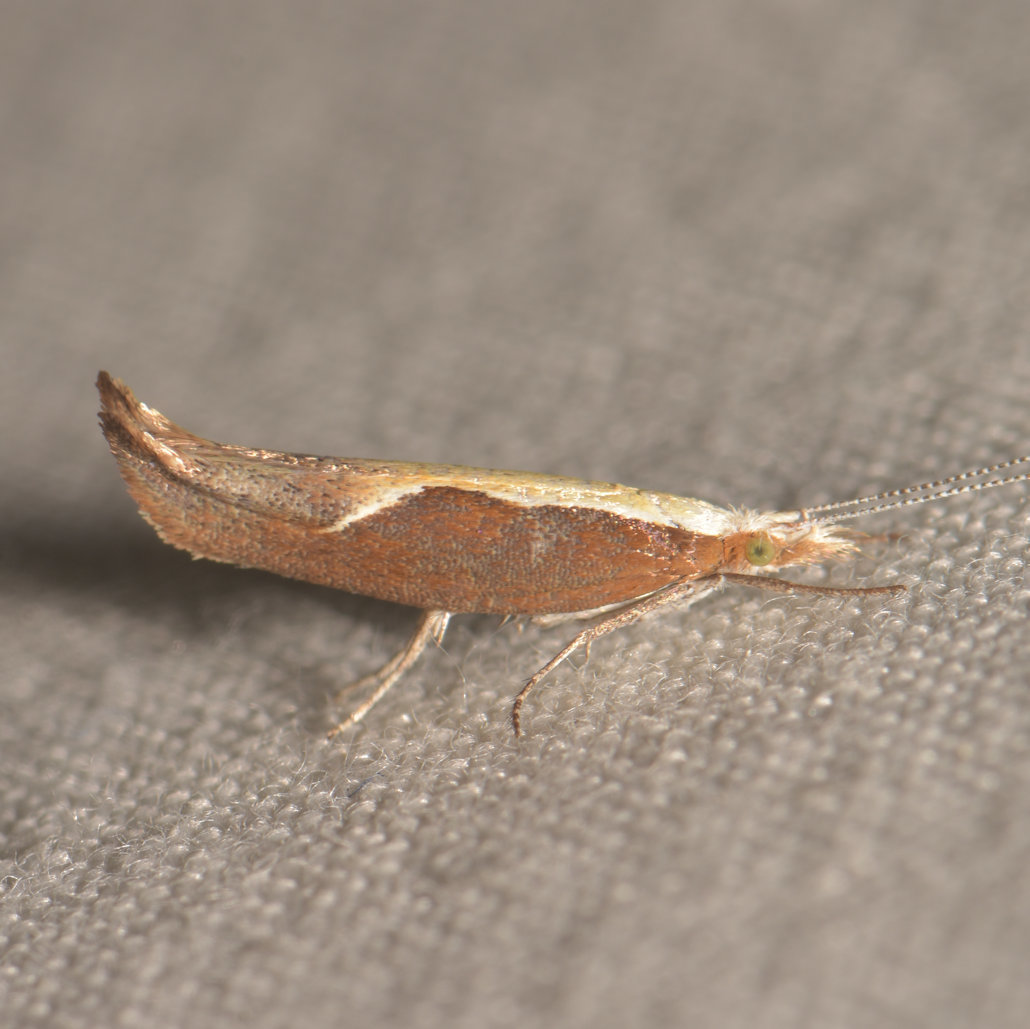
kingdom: Animalia
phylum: Arthropoda
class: Insecta
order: Lepidoptera
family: Ypsolophidae
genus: Ypsolopha
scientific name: Ypsolopha dentella
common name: Honeysuckle moth
